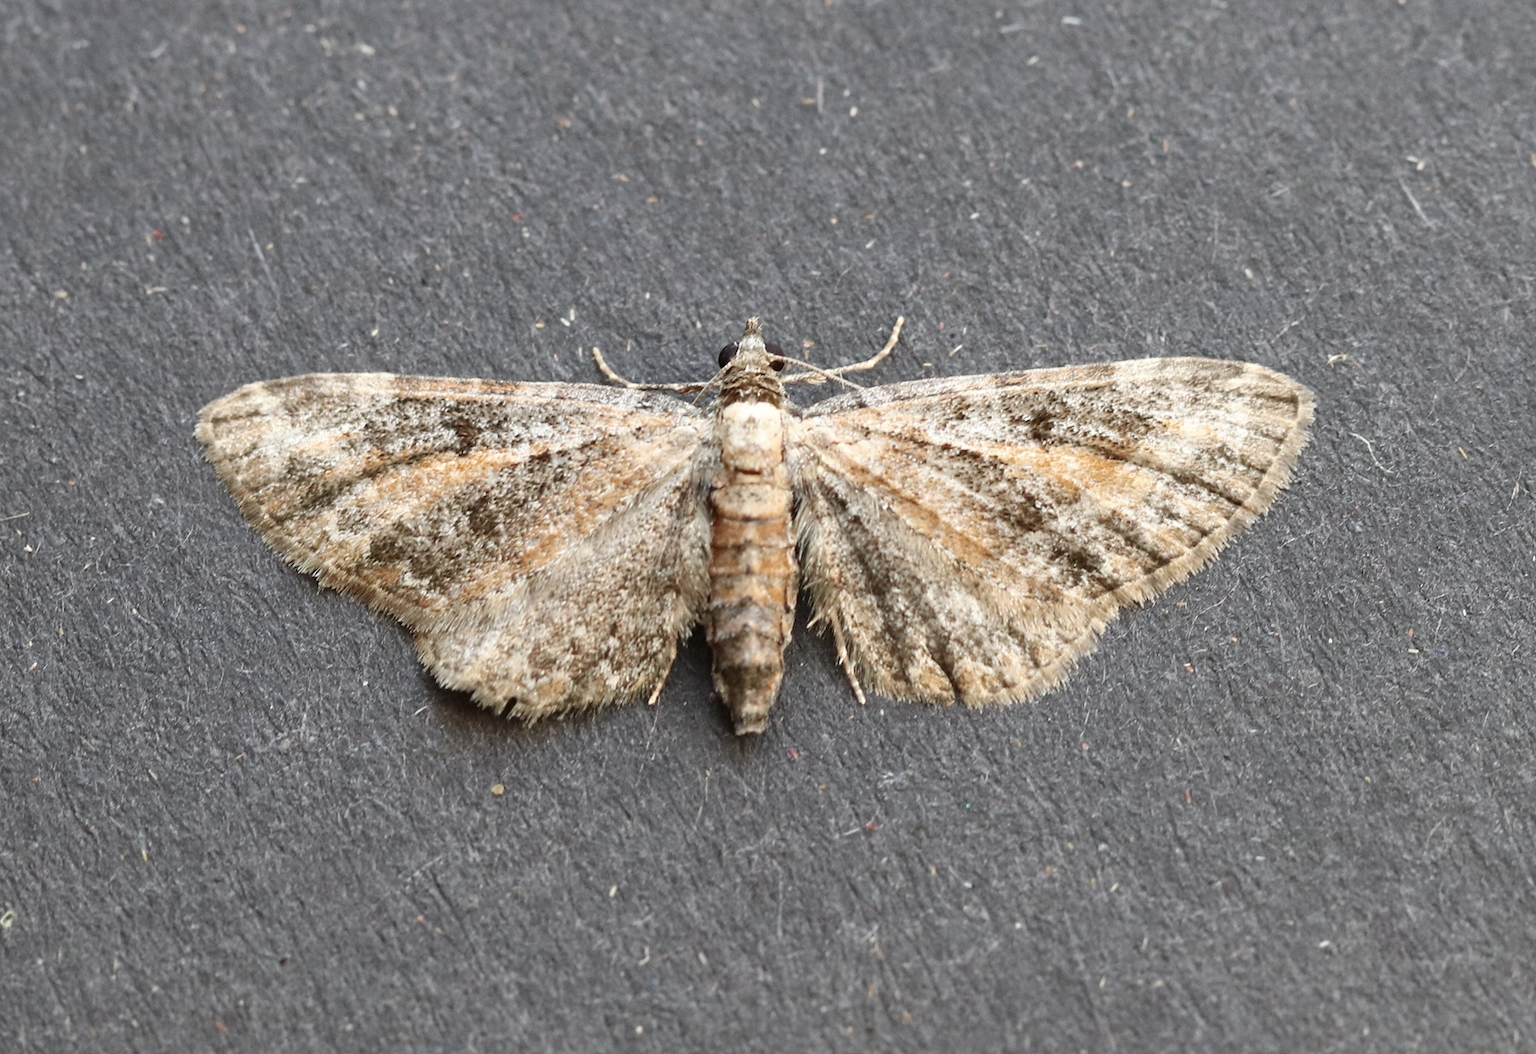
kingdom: Animalia
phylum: Arthropoda
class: Insecta
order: Lepidoptera
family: Geometridae
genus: Eupithecia
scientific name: Eupithecia icterata
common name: Tawny speckled pug
